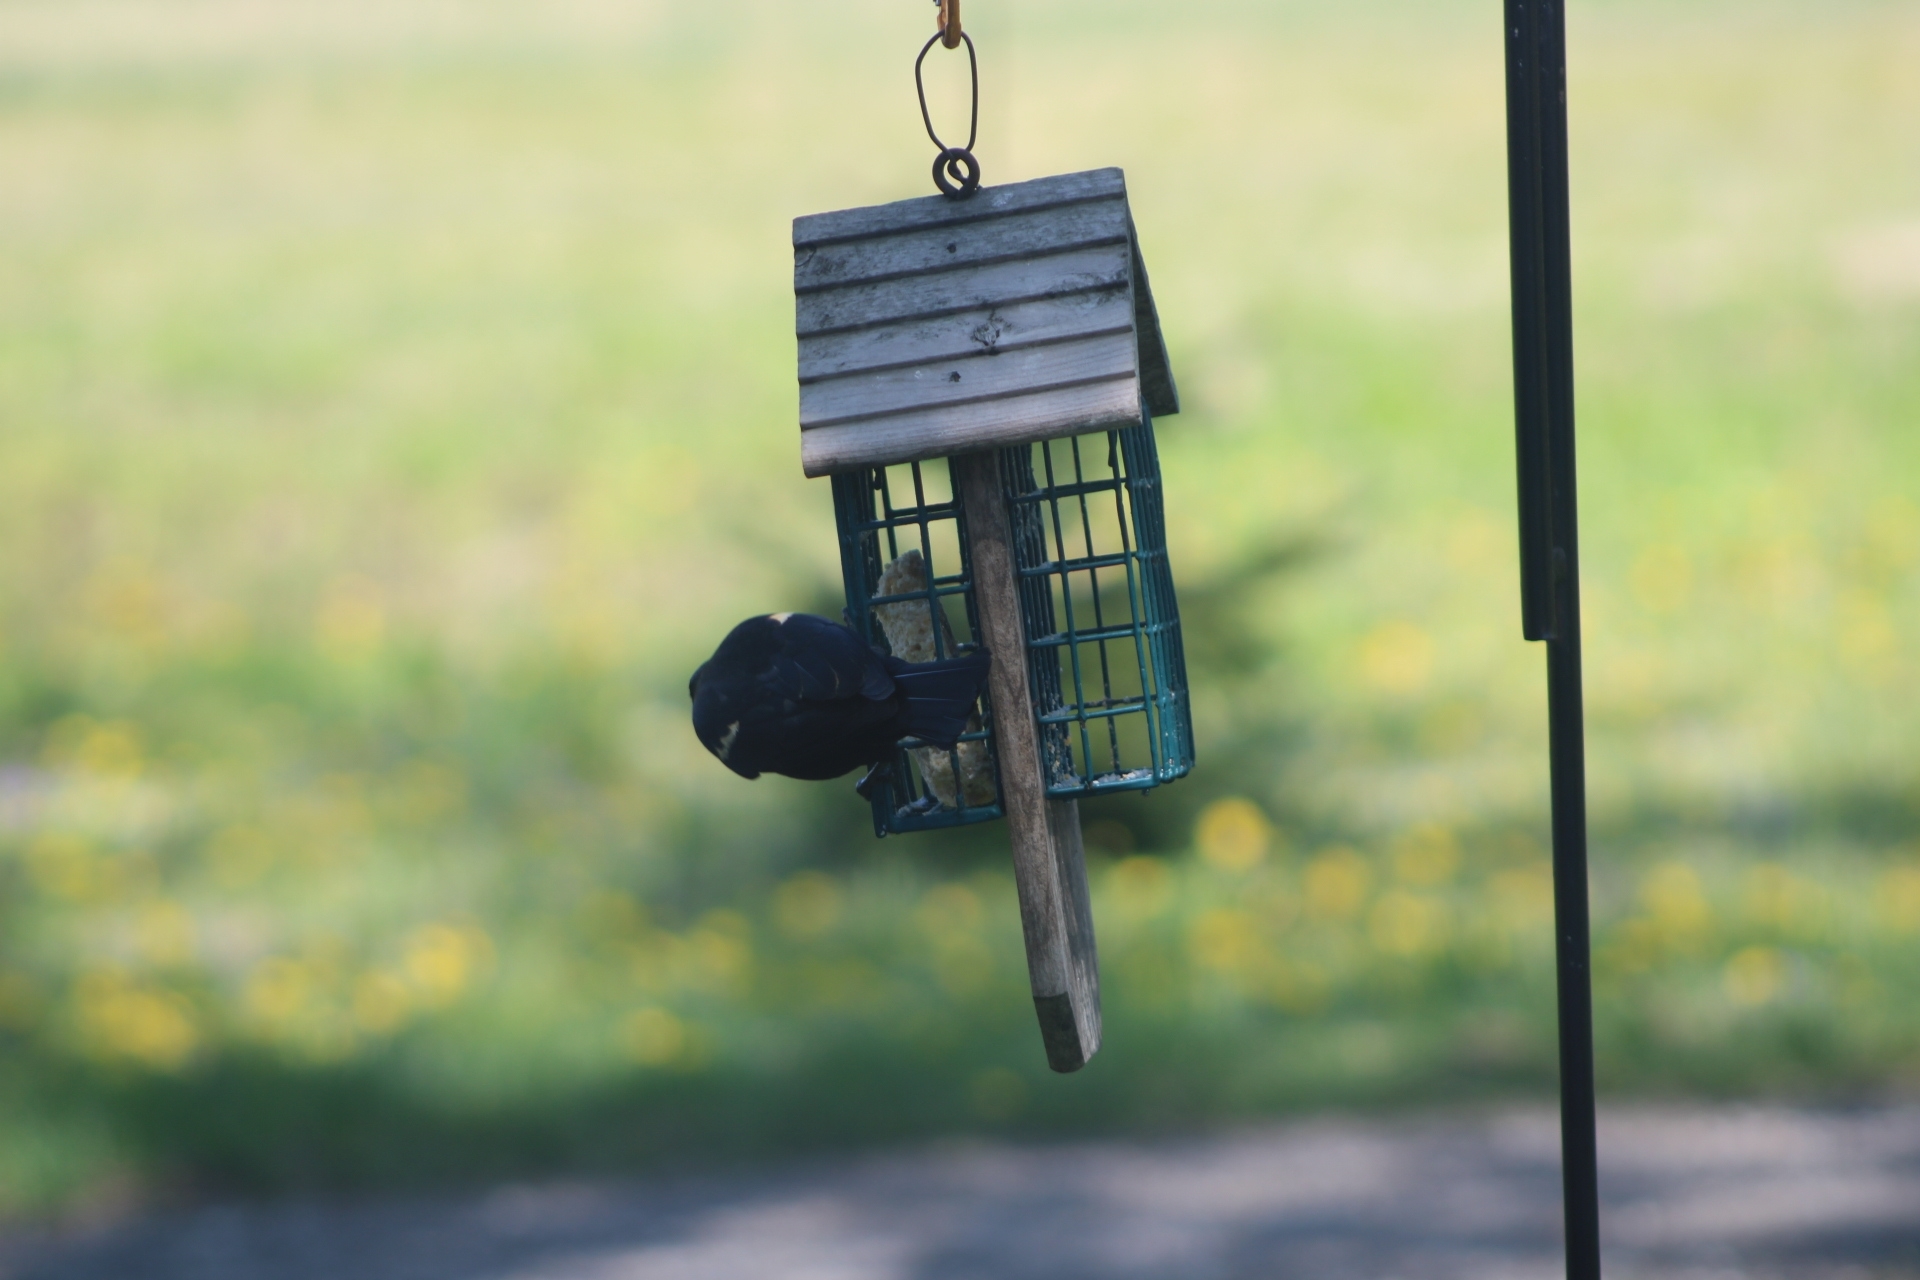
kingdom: Animalia
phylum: Chordata
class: Aves
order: Passeriformes
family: Icteridae
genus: Agelaius
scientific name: Agelaius phoeniceus
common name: Red-winged blackbird
